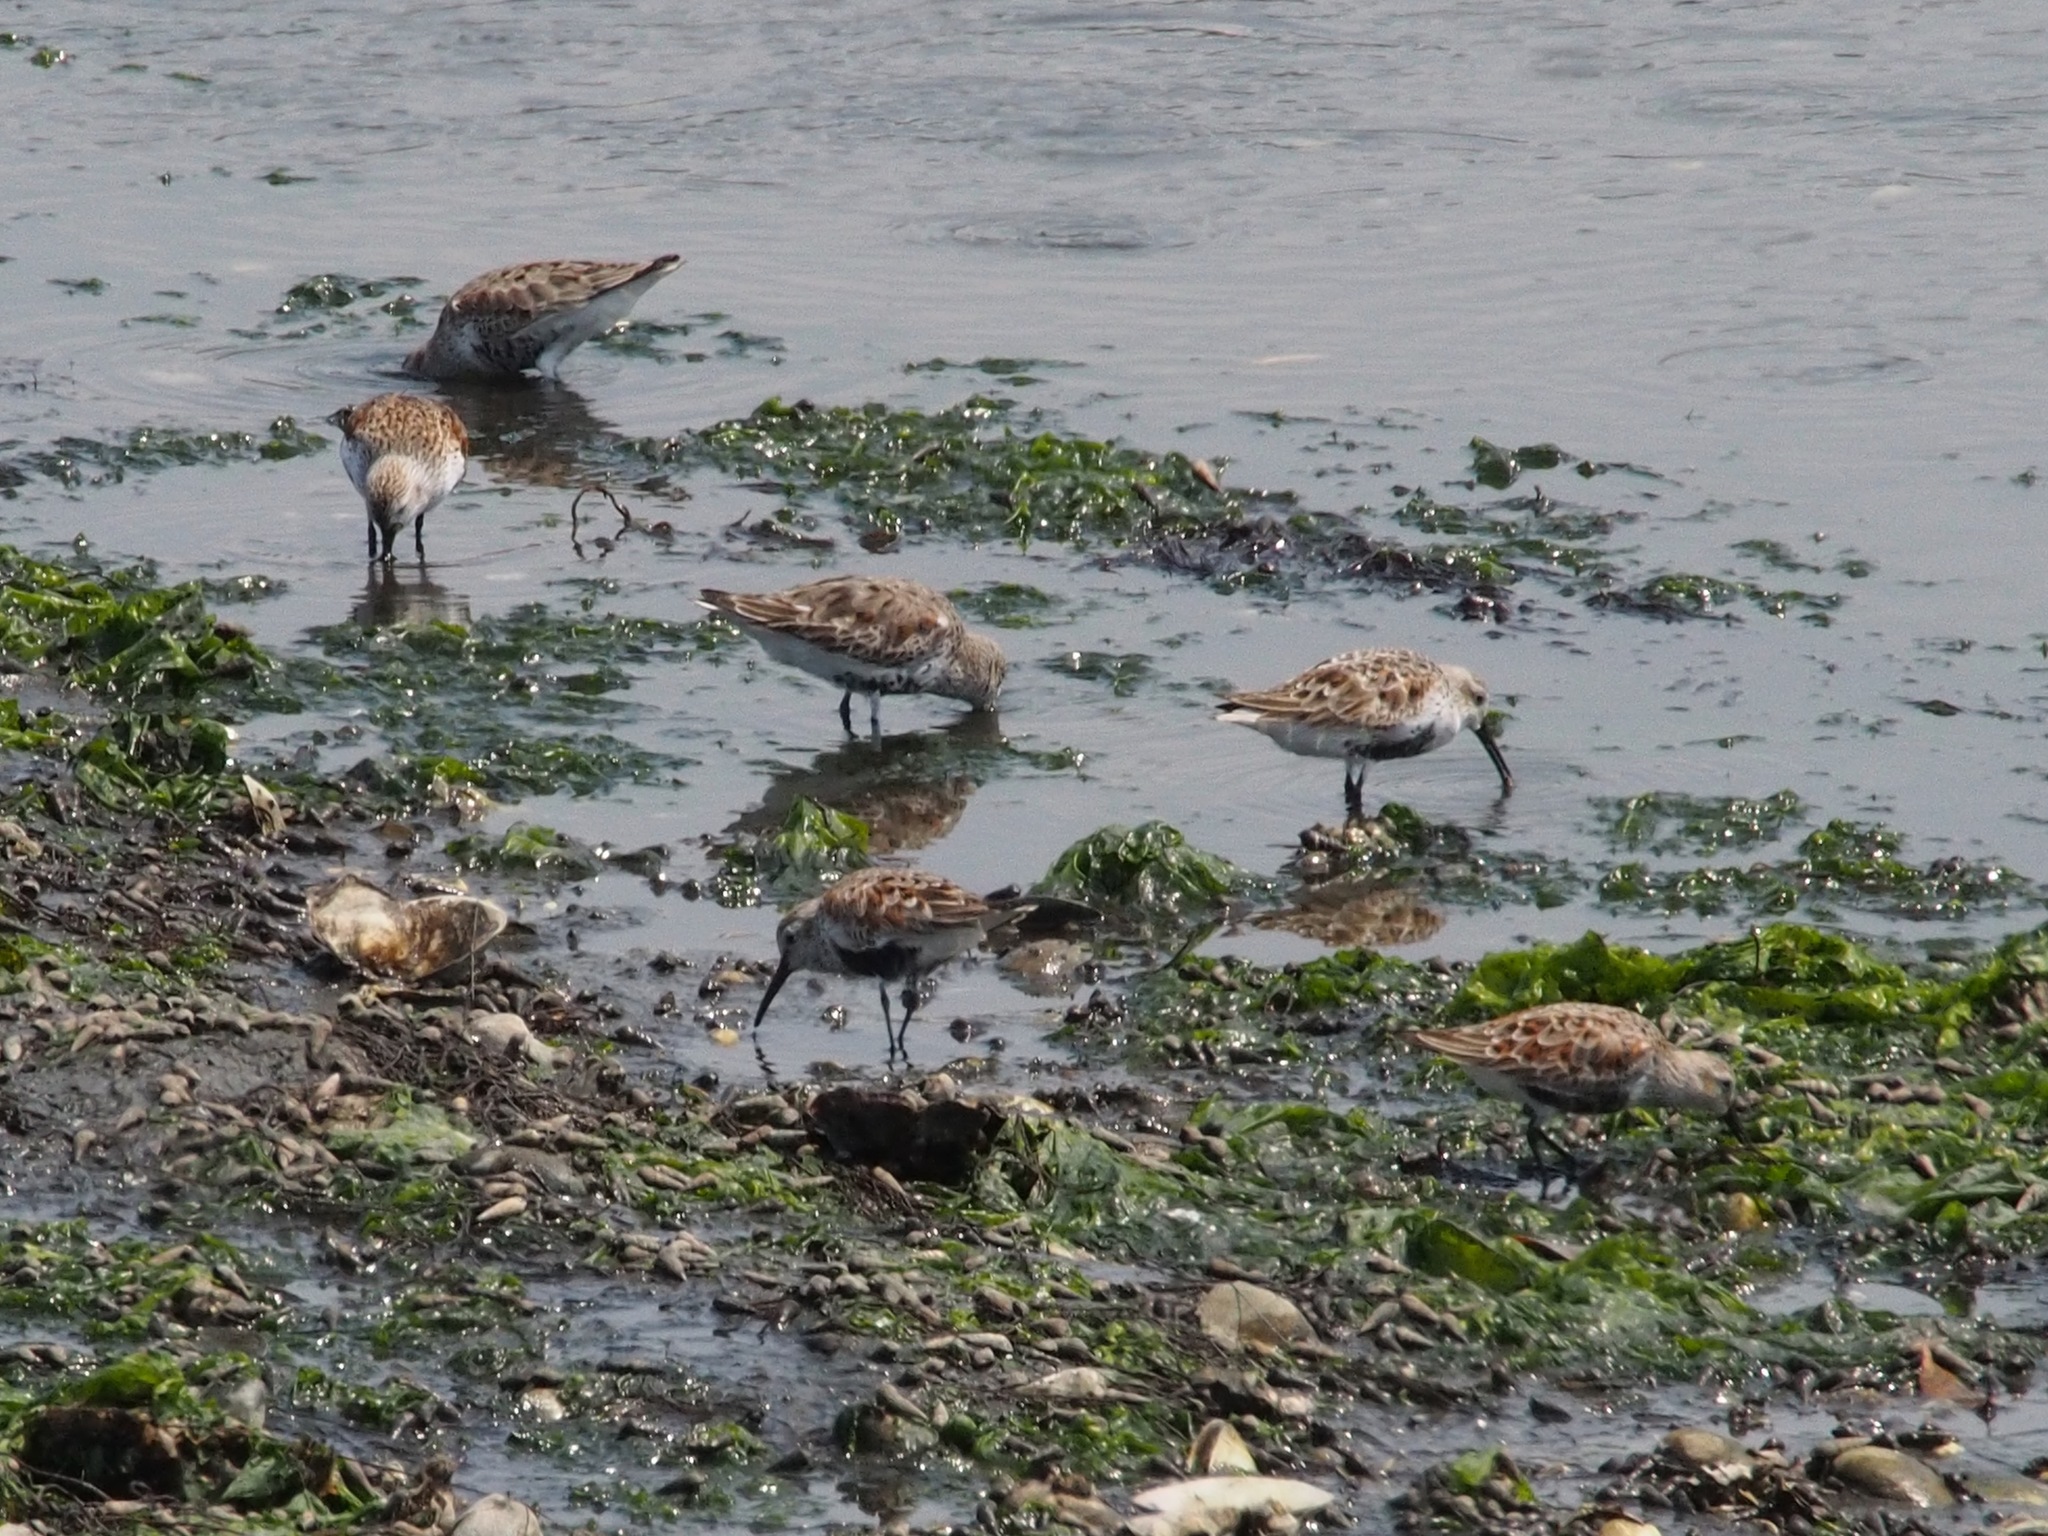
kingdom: Animalia
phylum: Chordata
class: Aves
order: Charadriiformes
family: Scolopacidae
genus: Calidris
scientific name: Calidris alpina
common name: Dunlin
